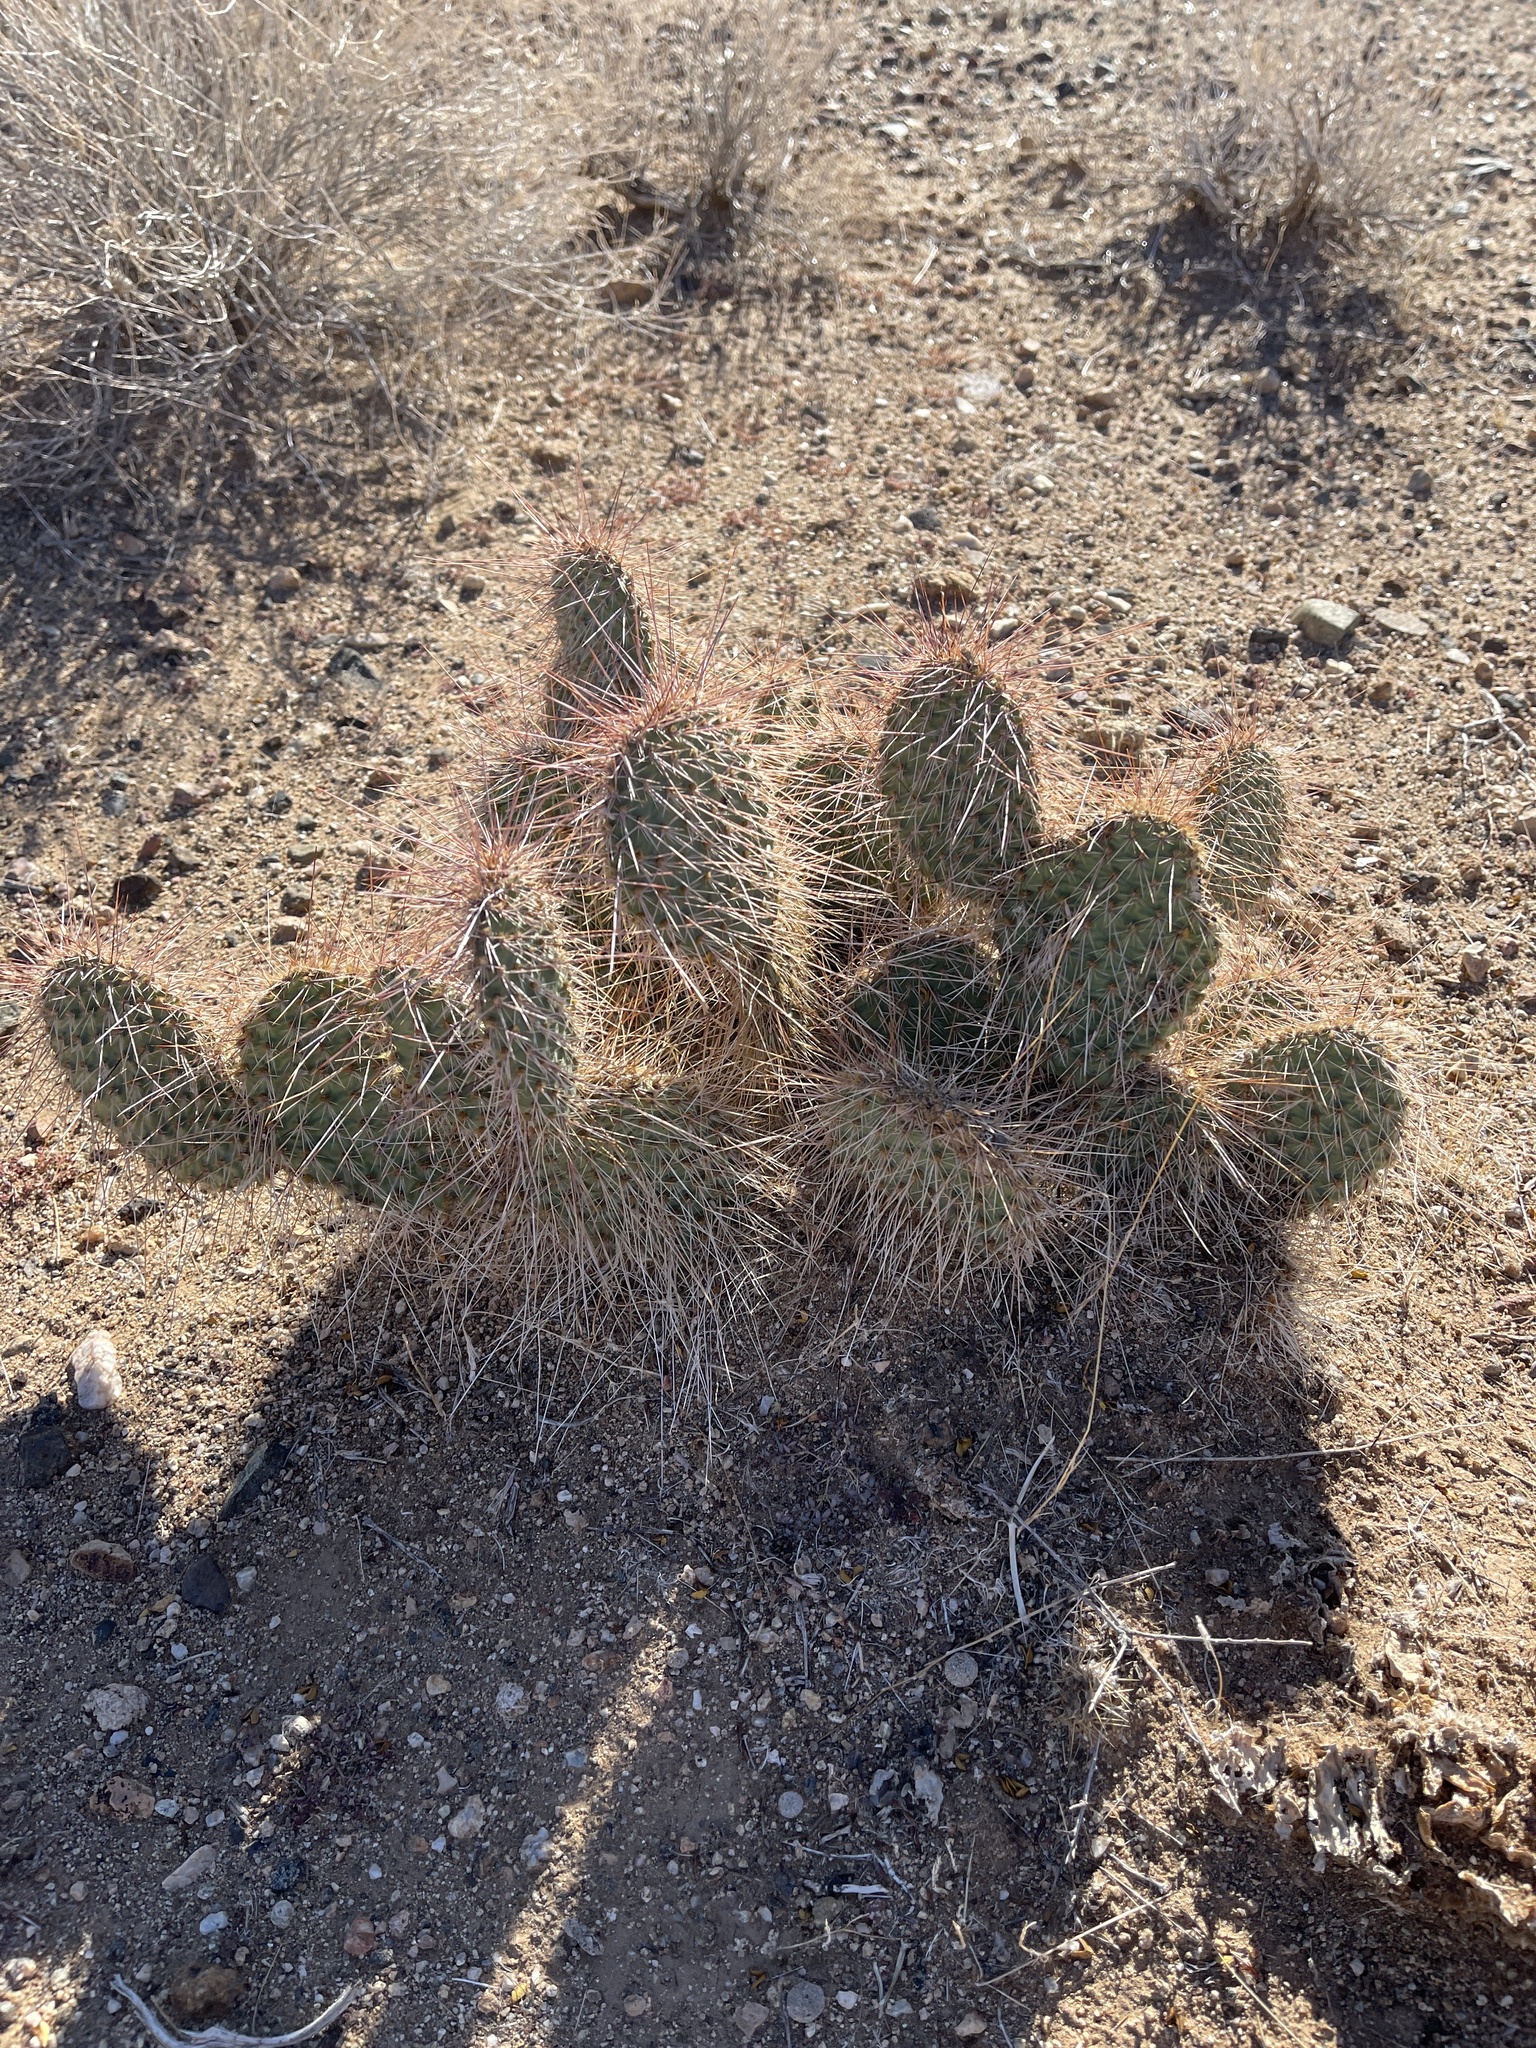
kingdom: Plantae
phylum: Tracheophyta
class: Magnoliopsida
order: Caryophyllales
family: Cactaceae
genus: Opuntia
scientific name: Opuntia polyacantha
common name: Plains prickly-pear
